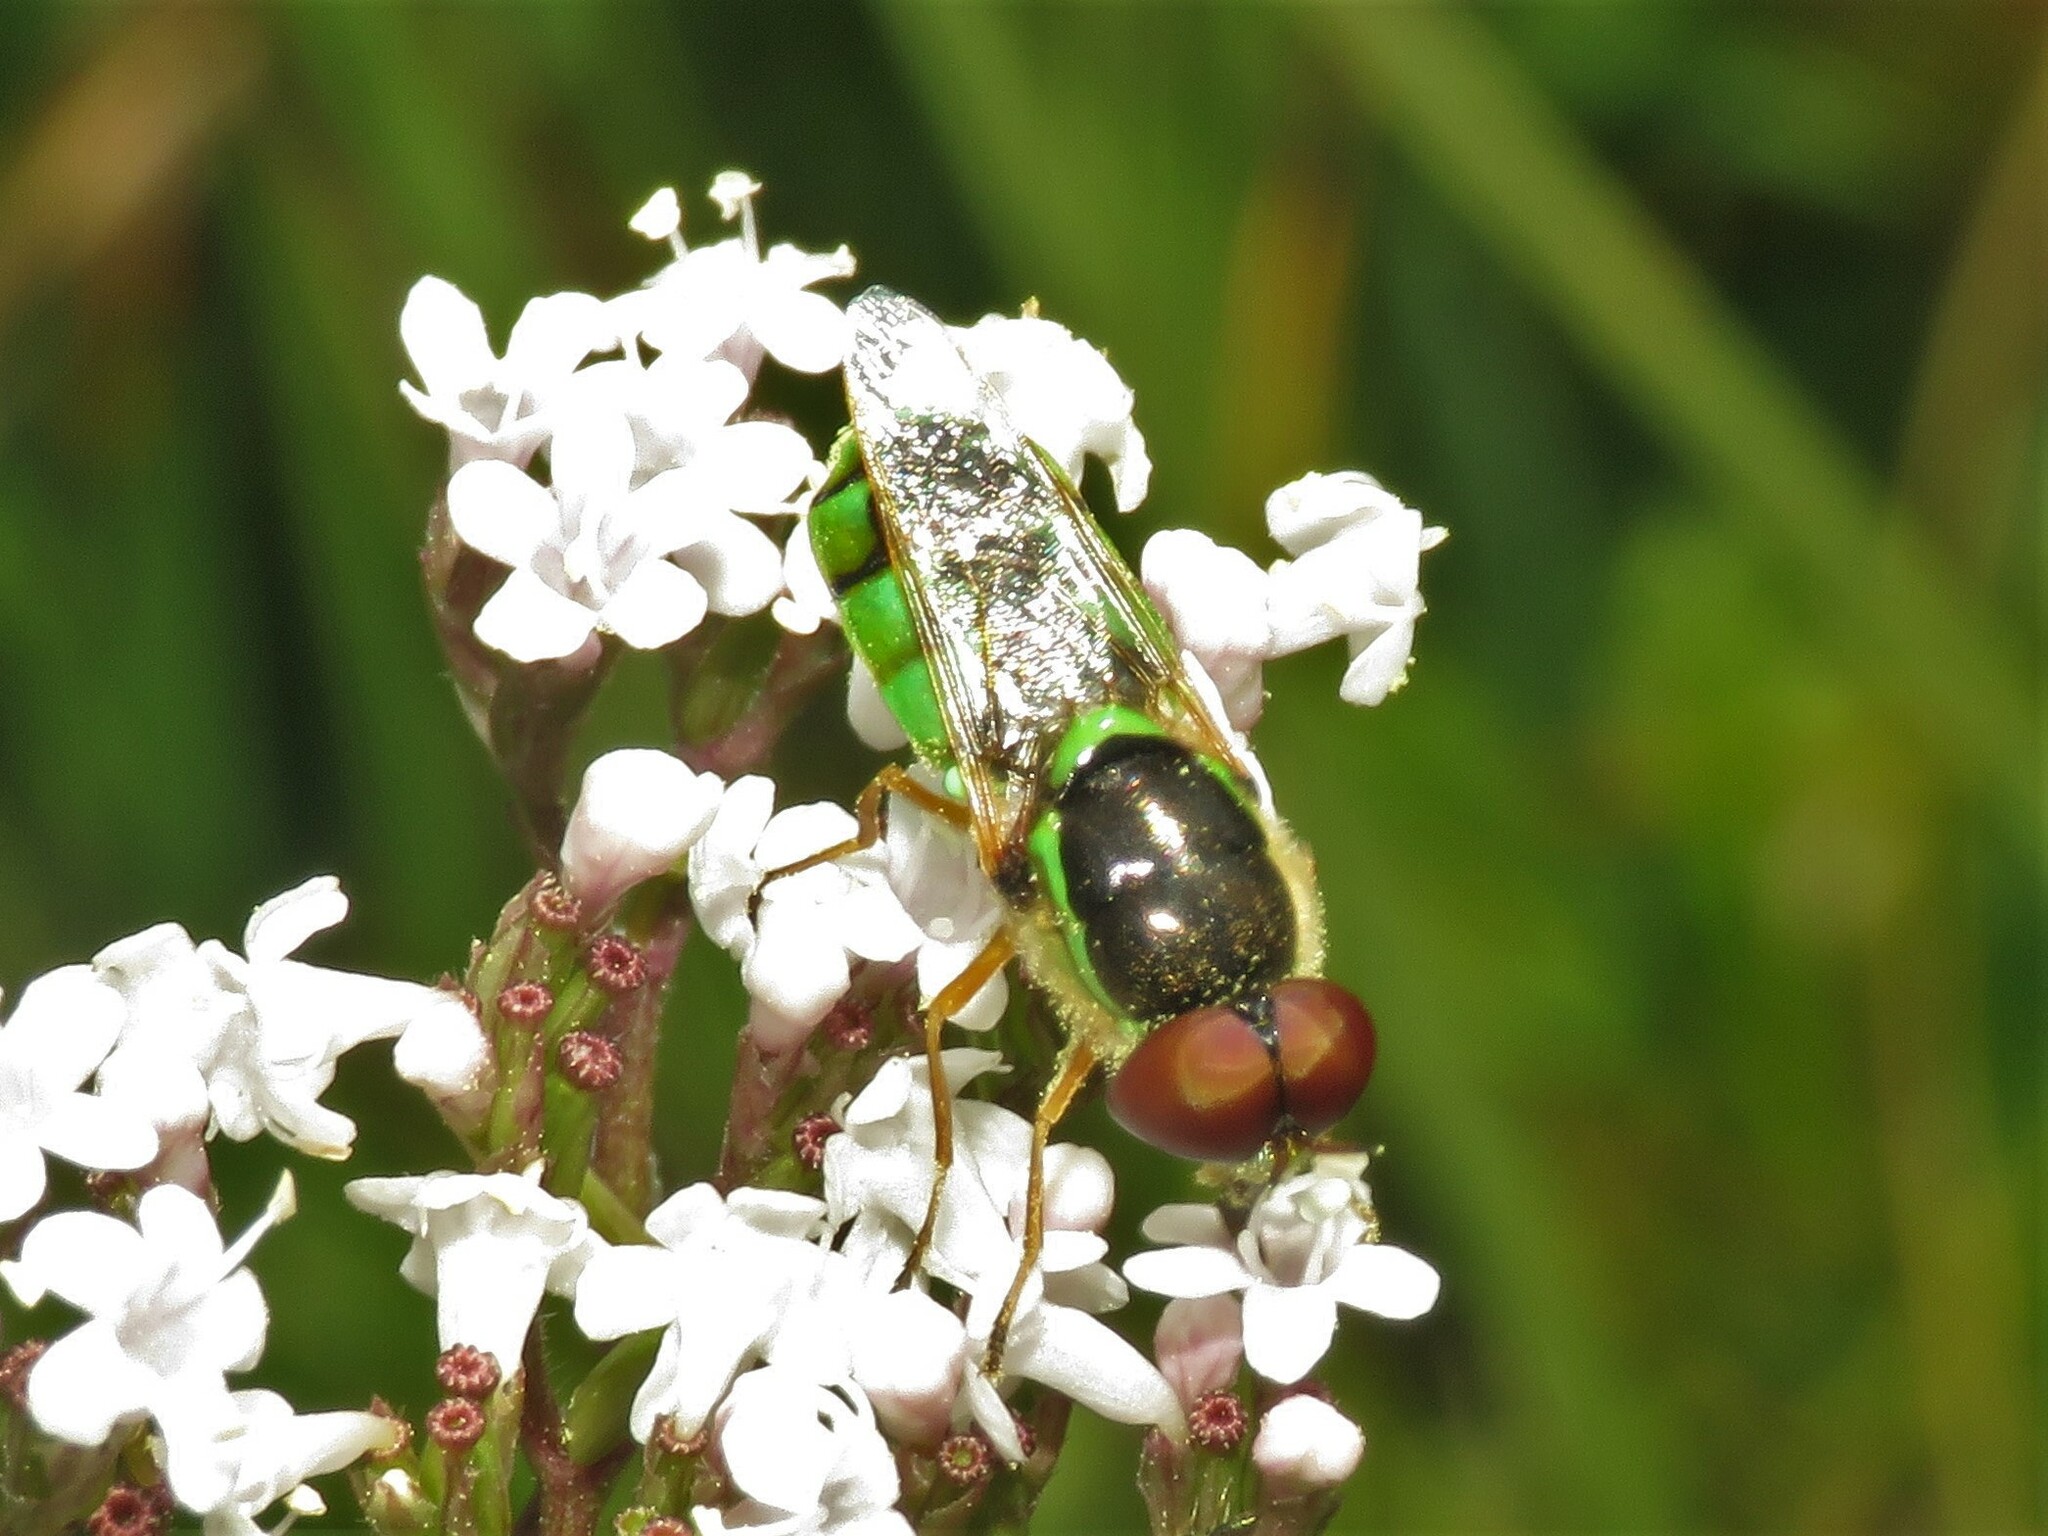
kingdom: Animalia
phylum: Arthropoda
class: Insecta
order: Diptera
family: Stratiomyidae
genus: Odontomyia
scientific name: Odontomyia cincta
